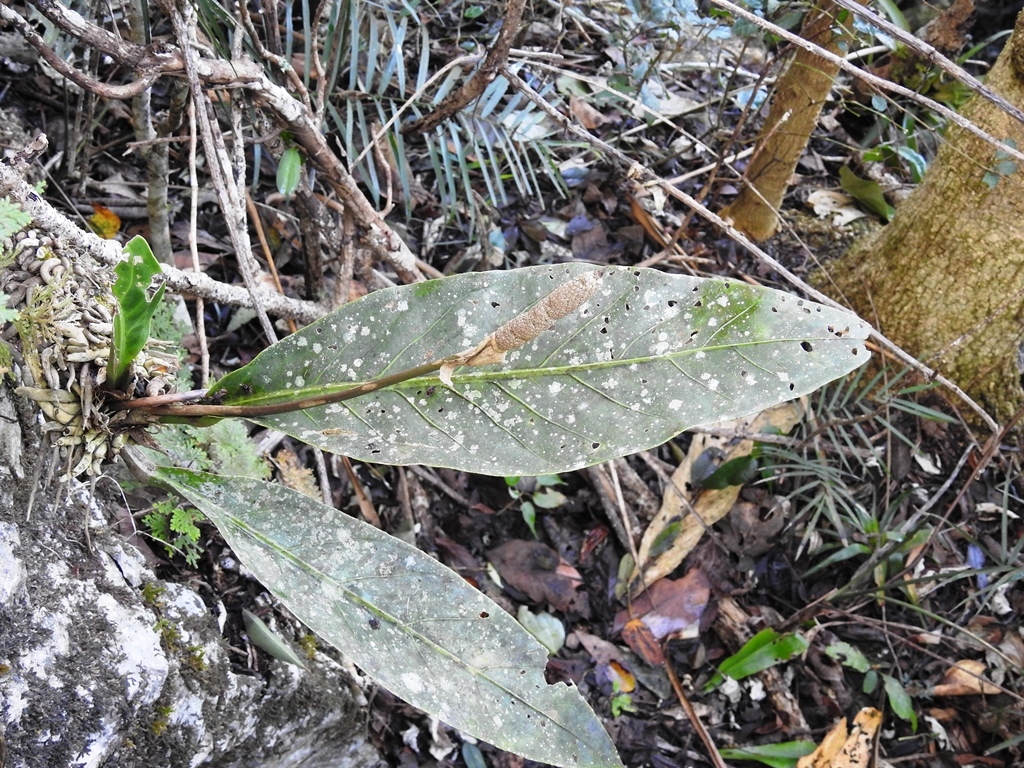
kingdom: Plantae
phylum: Tracheophyta
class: Liliopsida
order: Alismatales
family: Araceae
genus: Anthurium
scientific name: Anthurium schlechtendalii
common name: Laceleaf
